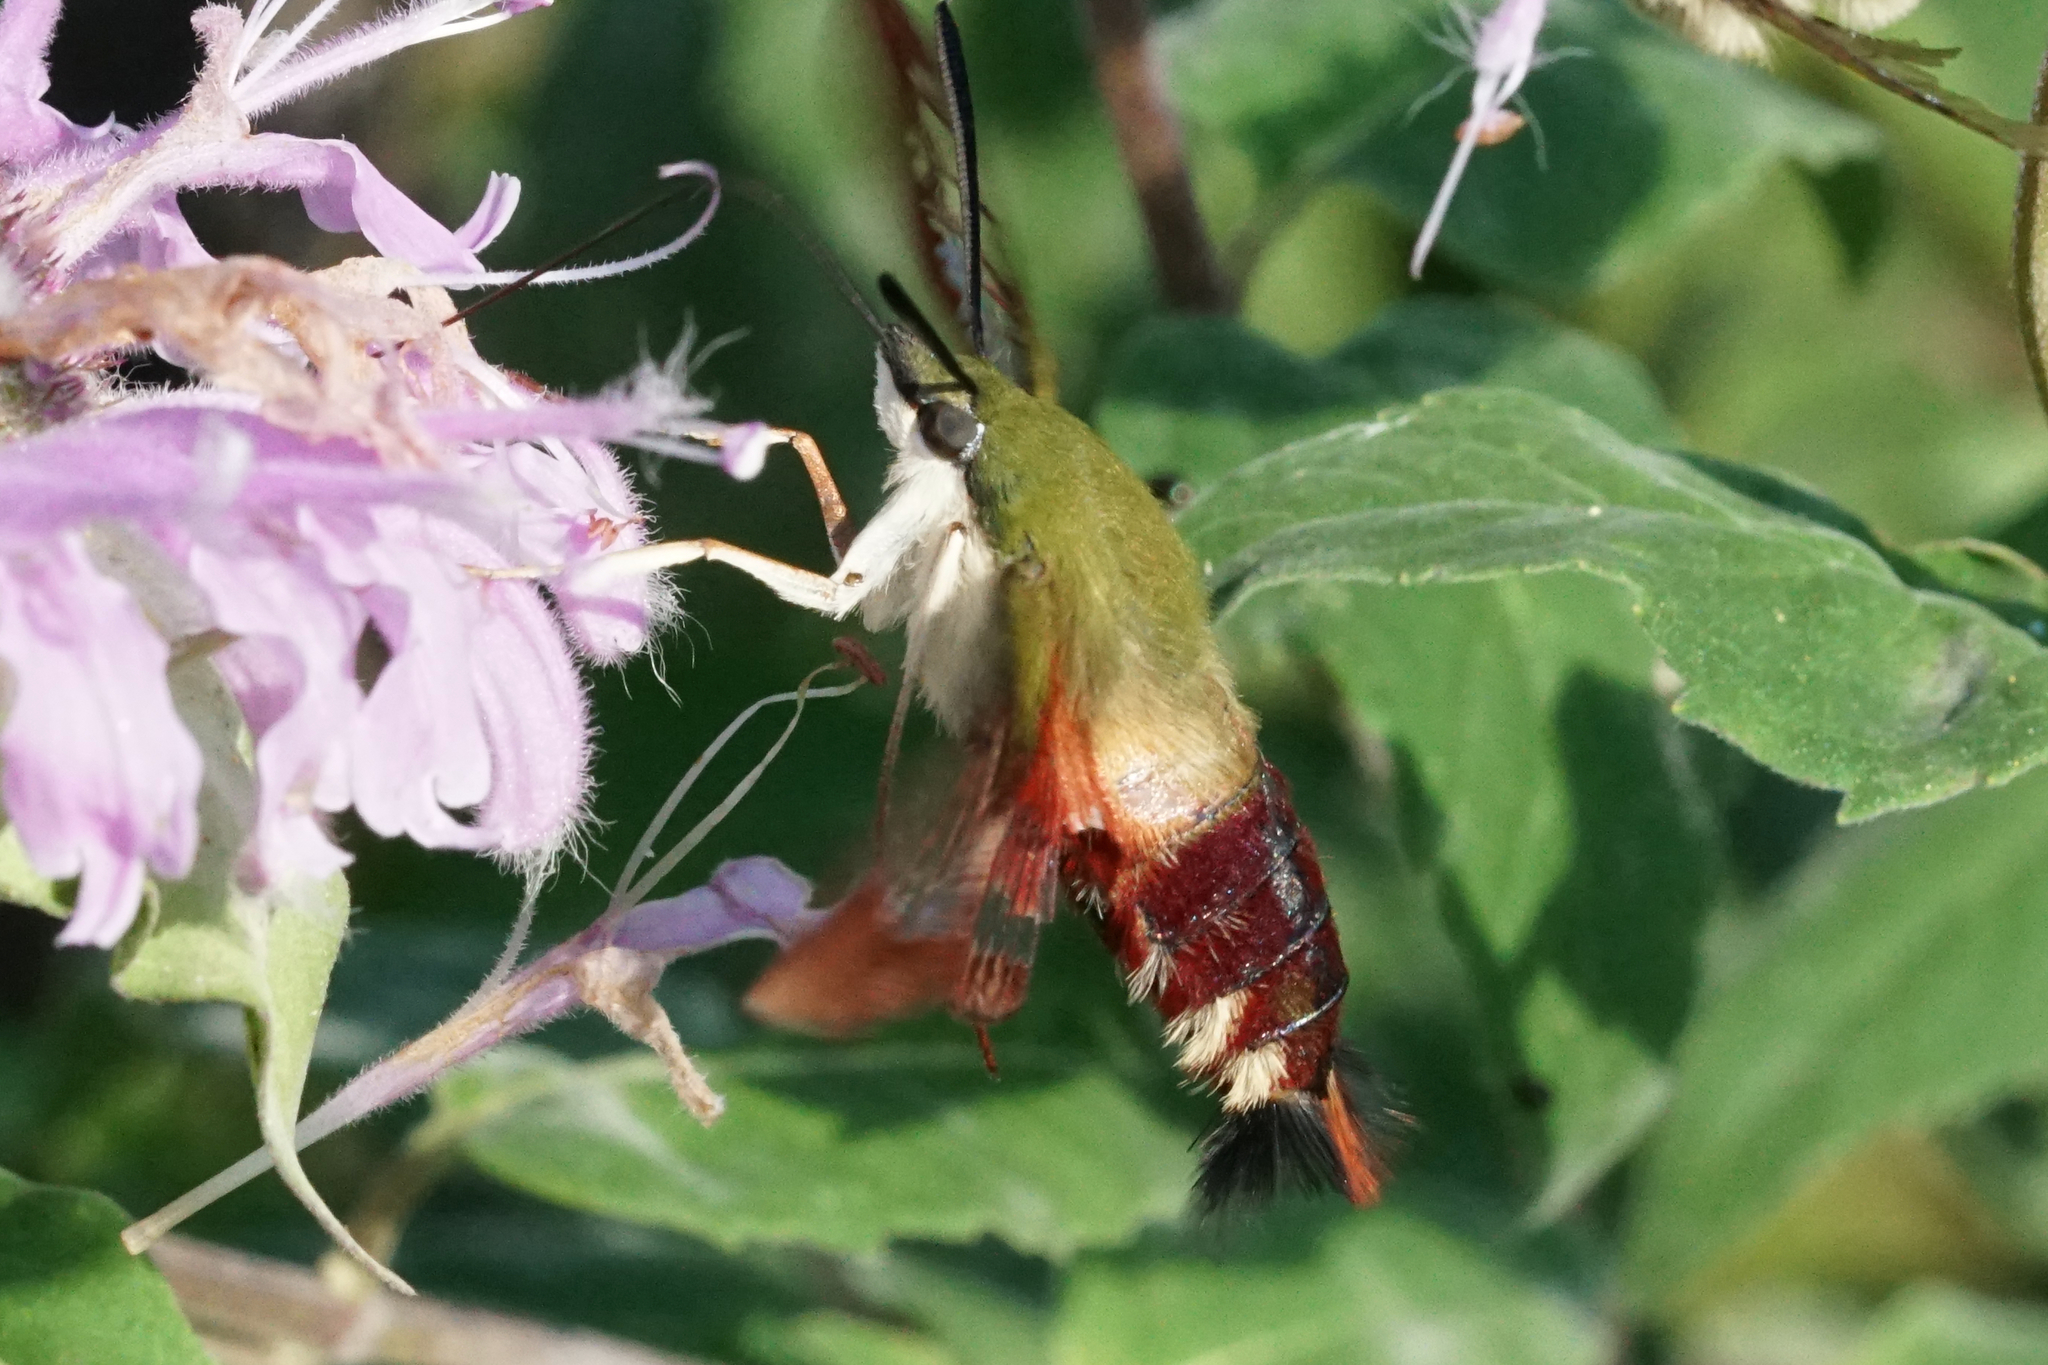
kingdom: Animalia
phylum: Arthropoda
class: Insecta
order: Lepidoptera
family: Sphingidae
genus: Hemaris
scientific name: Hemaris thysbe
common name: Common clear-wing
